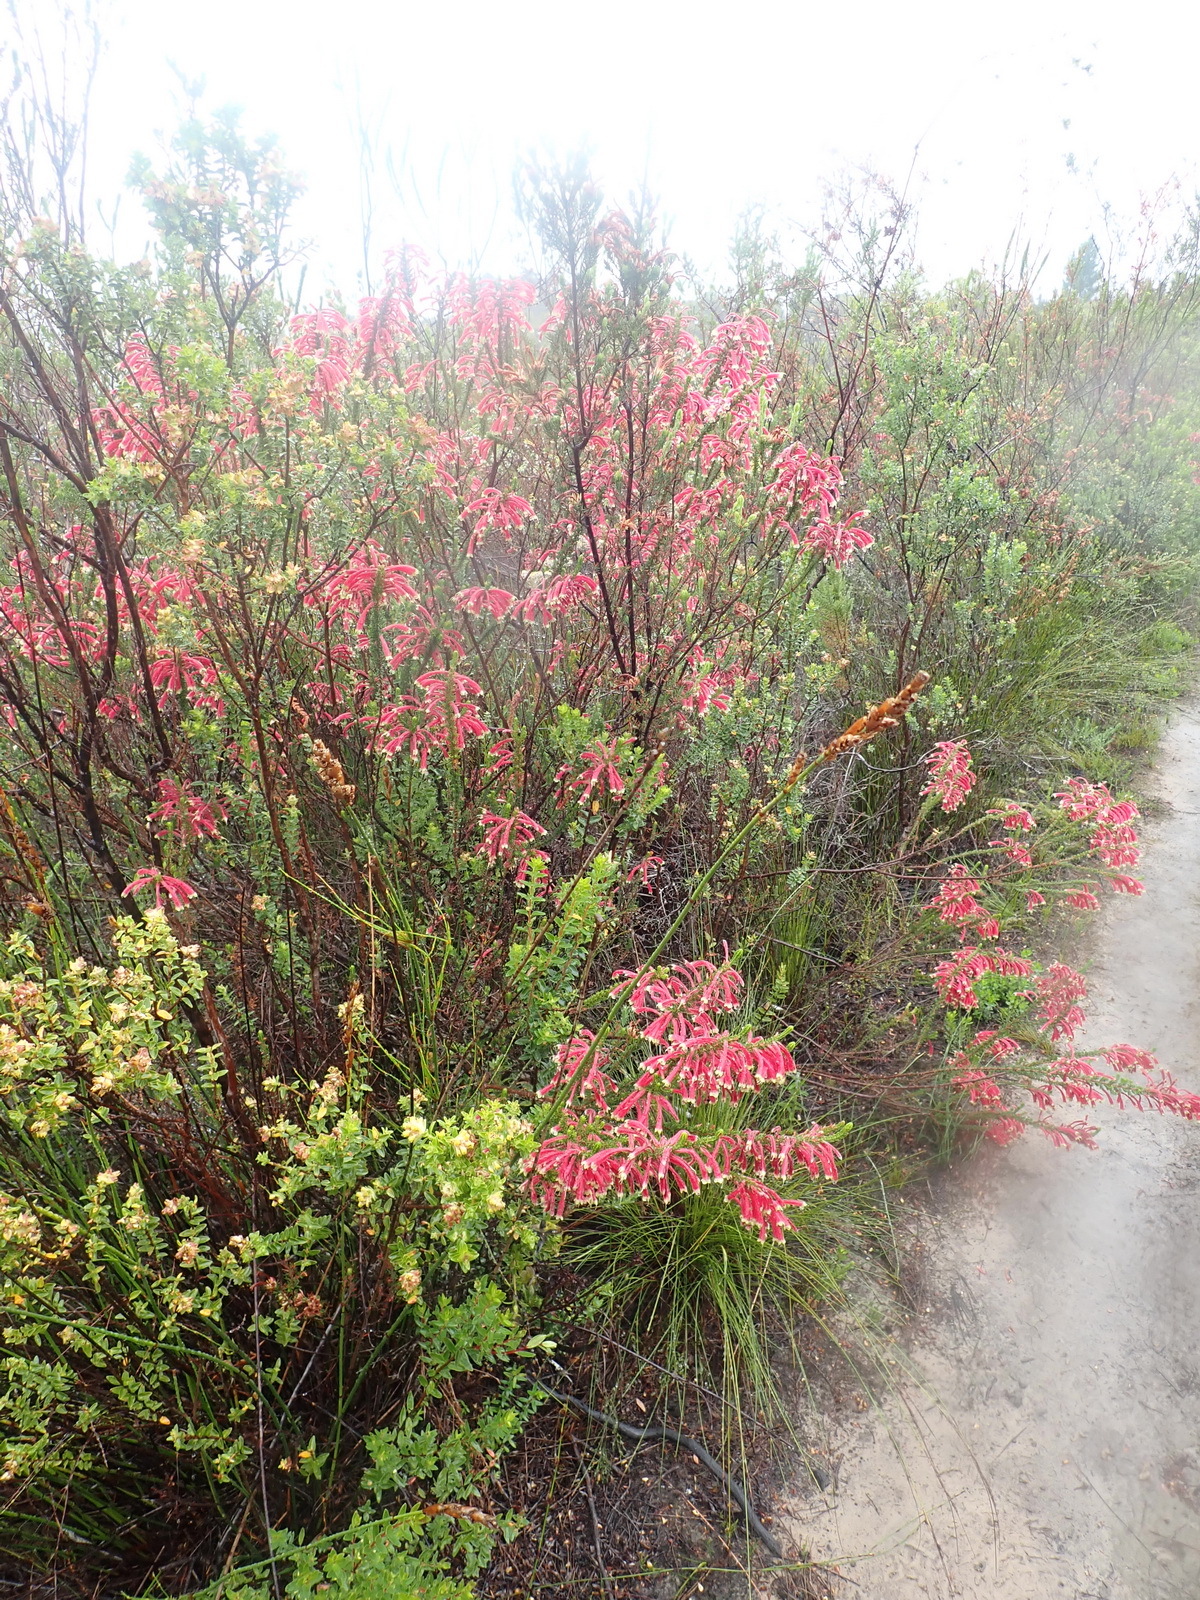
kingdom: Plantae
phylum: Tracheophyta
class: Magnoliopsida
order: Ericales
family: Ericaceae
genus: Erica
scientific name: Erica densifolia
